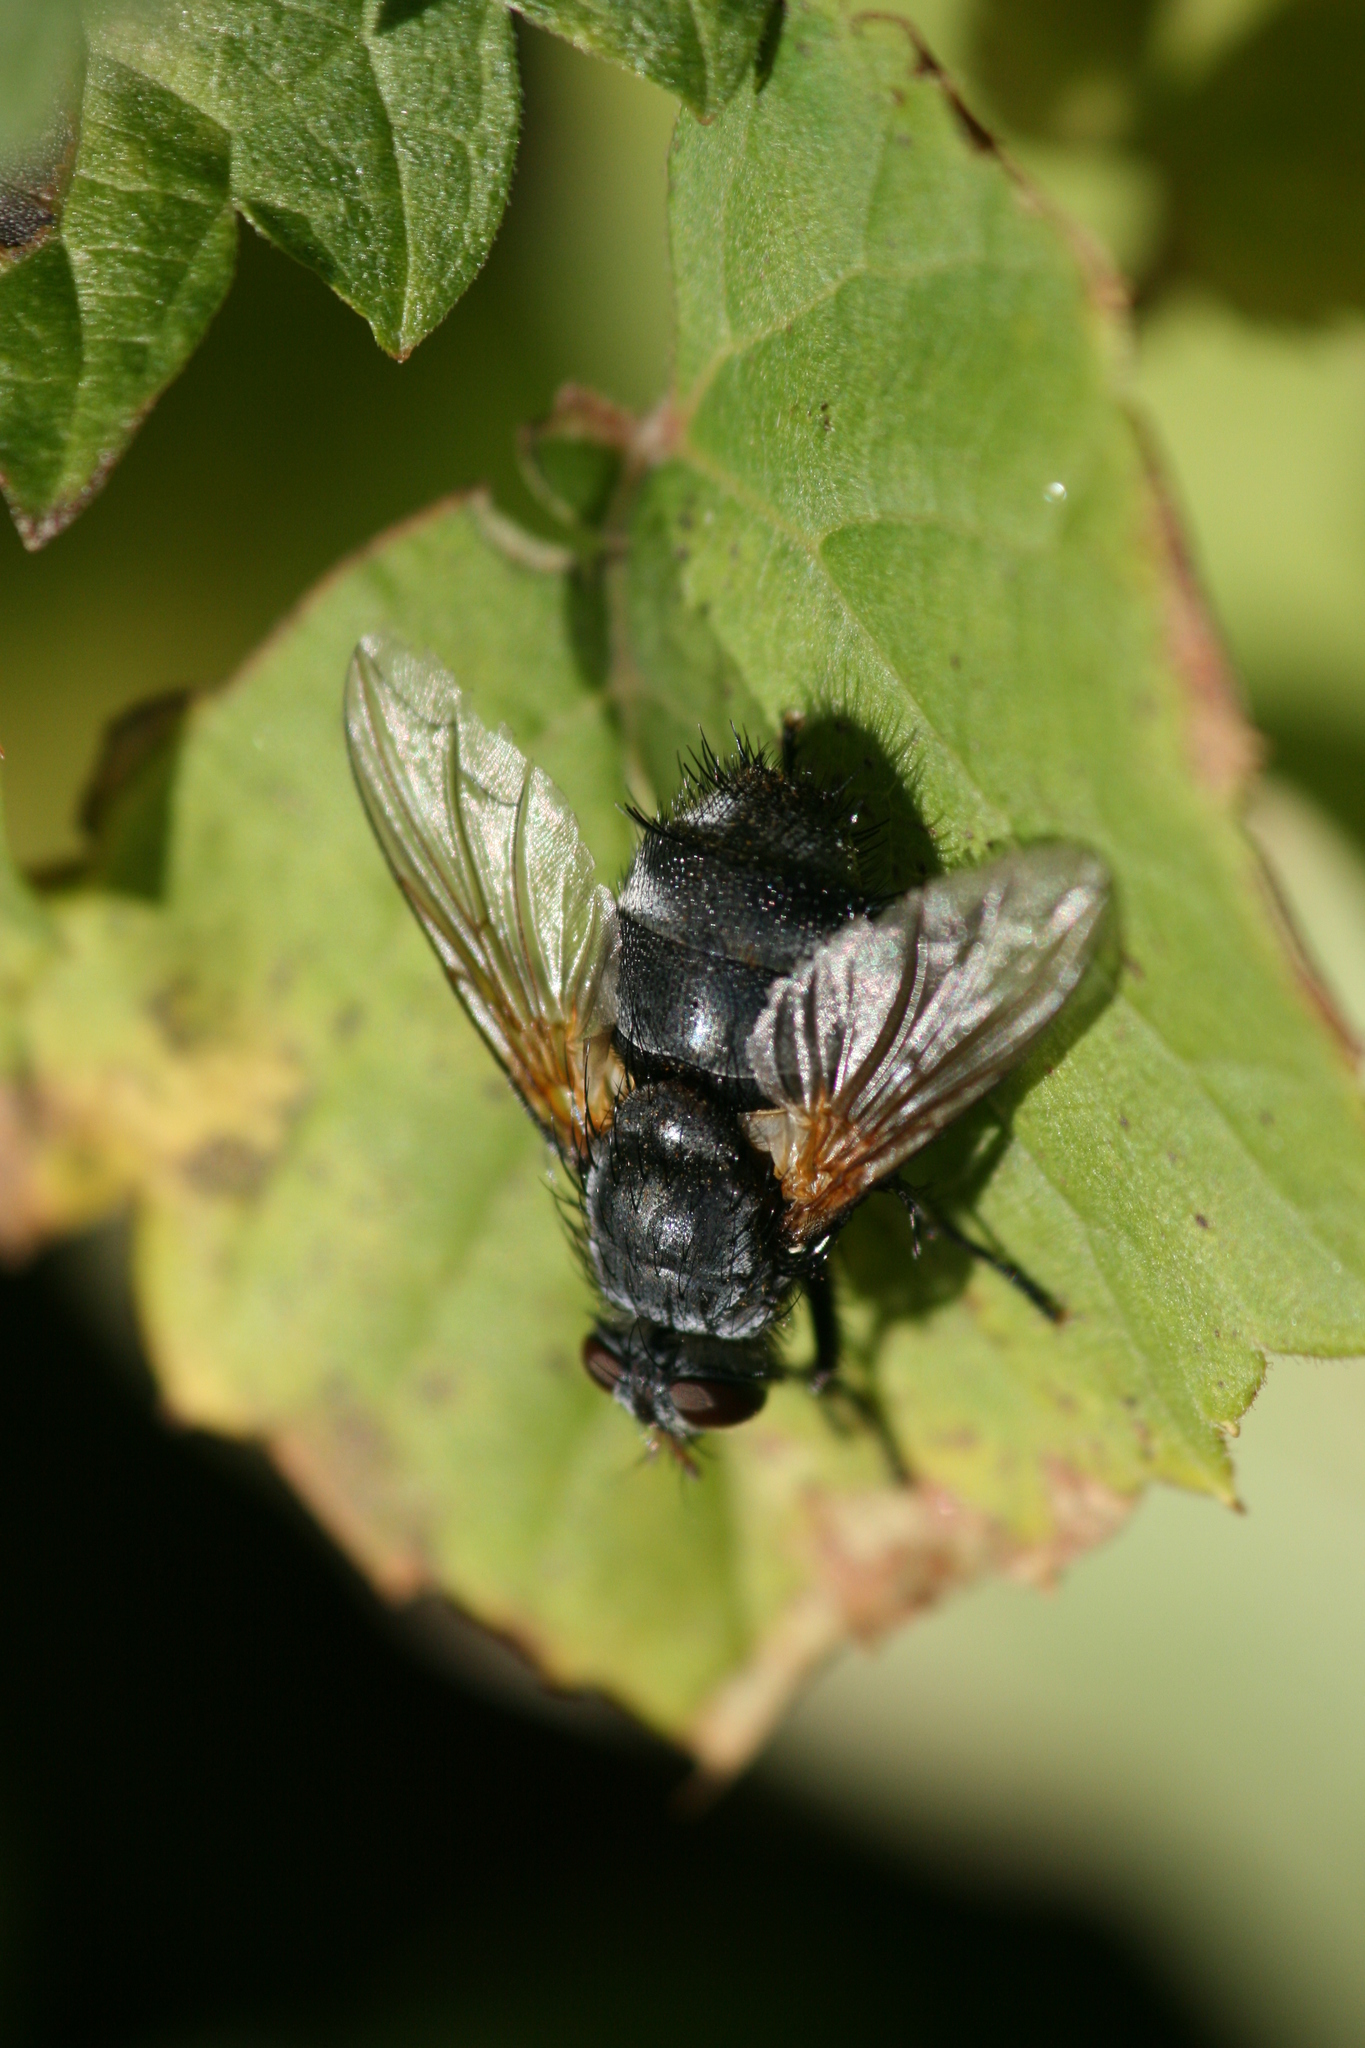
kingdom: Animalia
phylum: Arthropoda
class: Insecta
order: Diptera
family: Tachinidae
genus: Nemoraea
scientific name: Nemoraea pellucida
